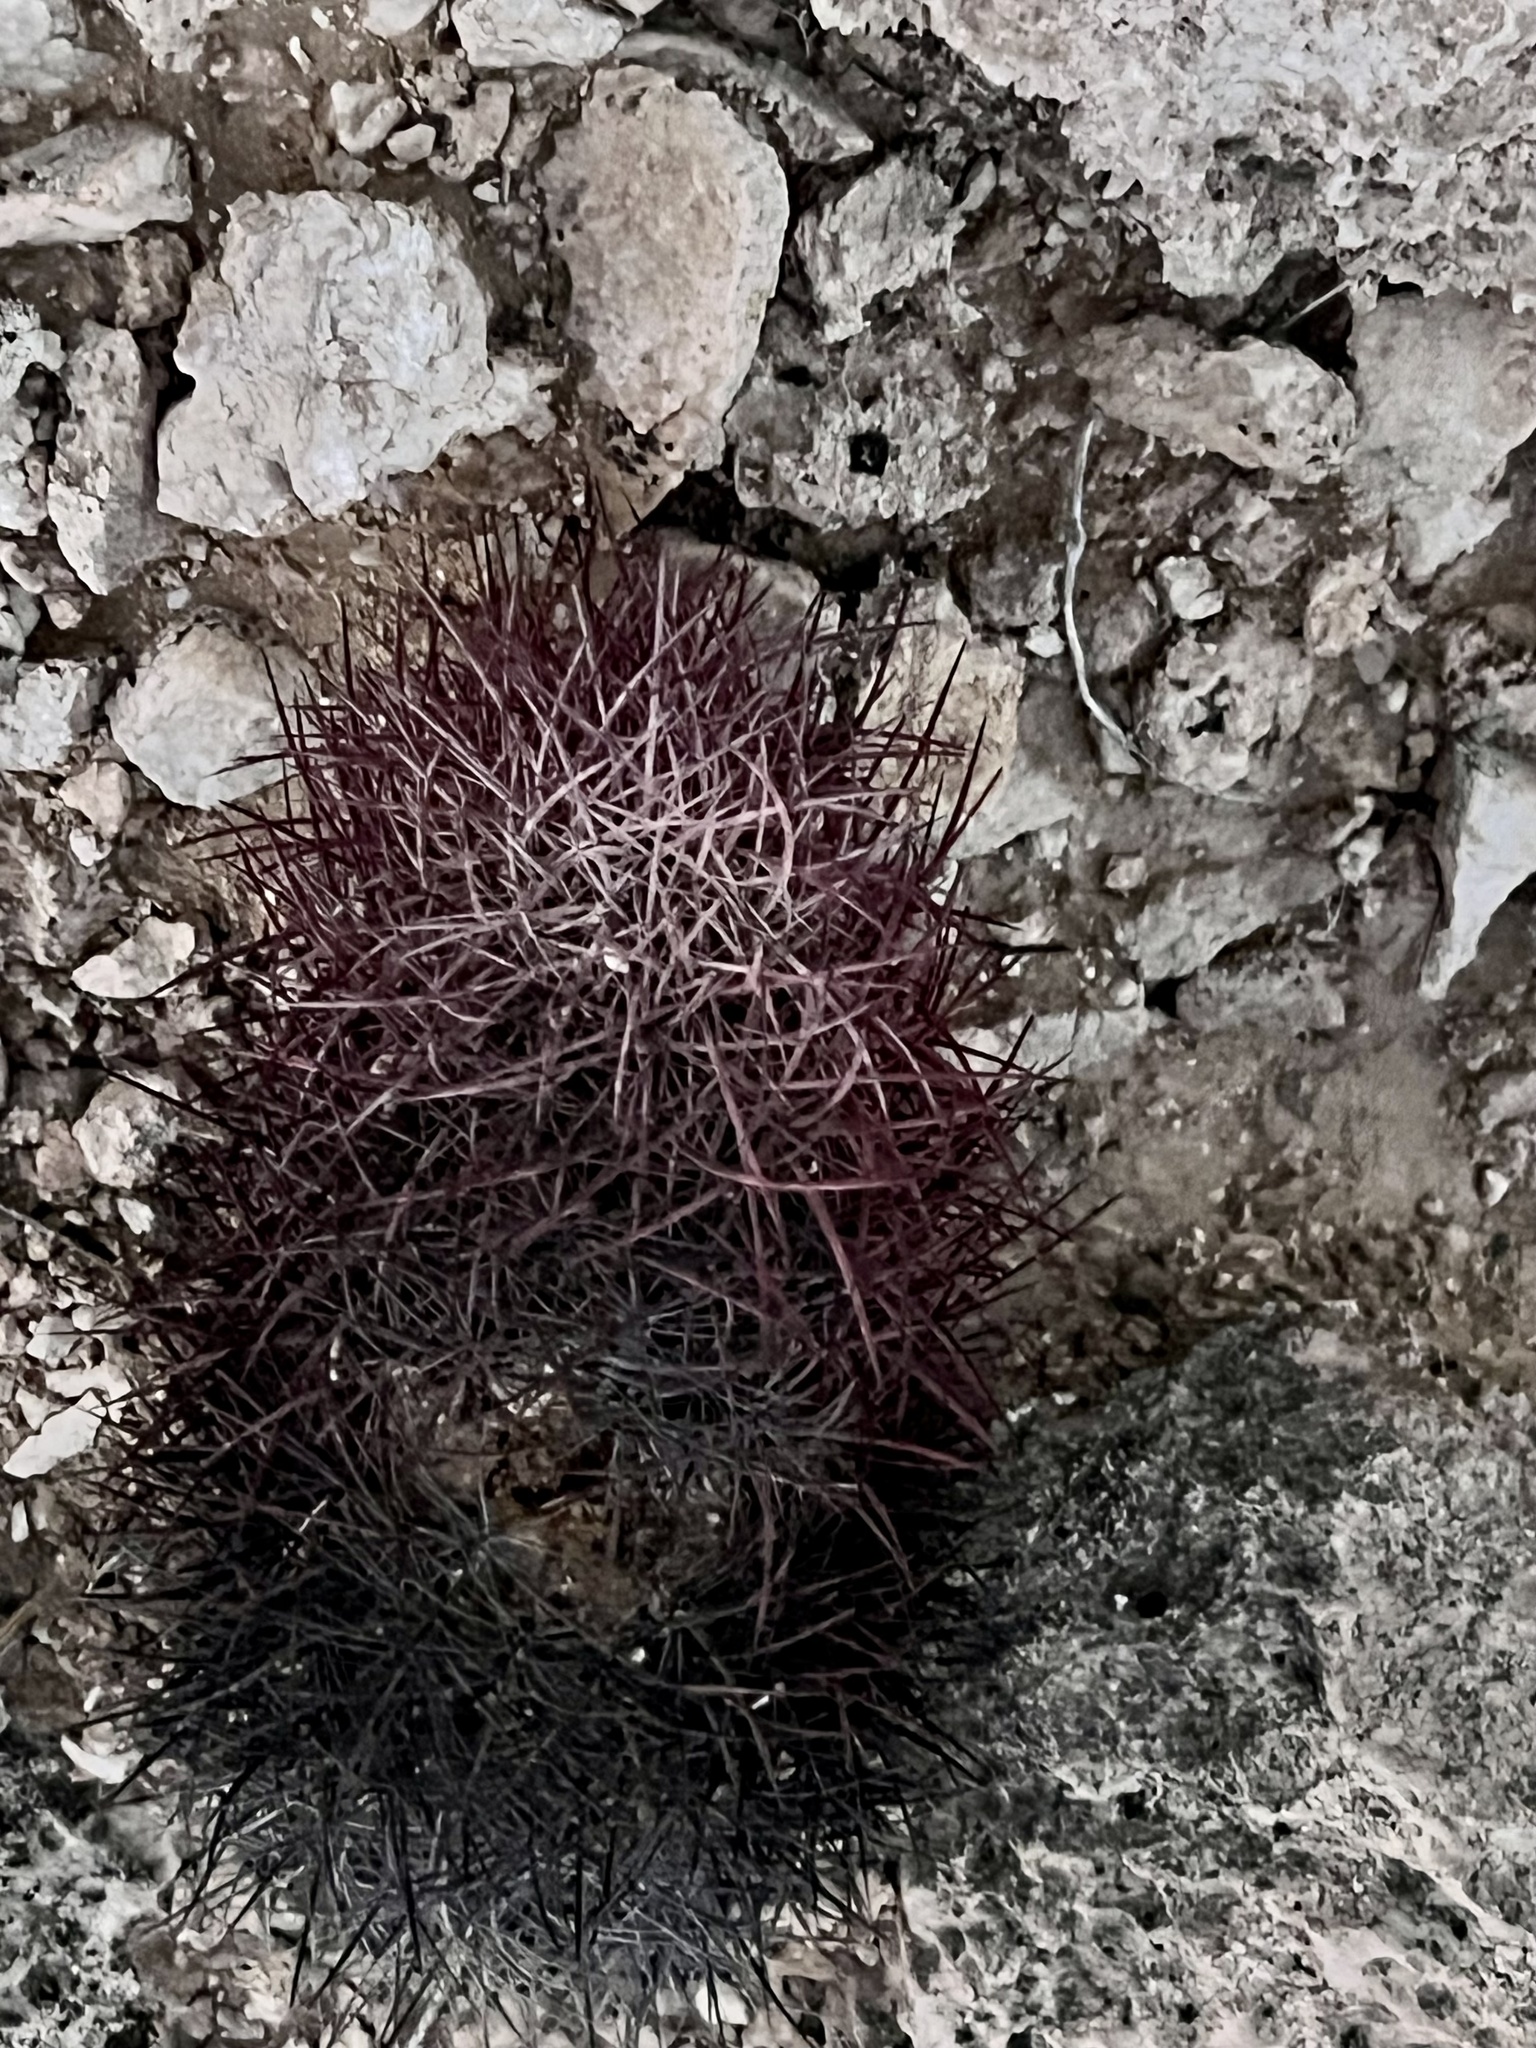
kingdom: Plantae
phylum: Tracheophyta
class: Magnoliopsida
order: Caryophyllales
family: Cactaceae
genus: Sclerocactus
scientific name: Sclerocactus johnsonii
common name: Eight-spine fishhook cactus
